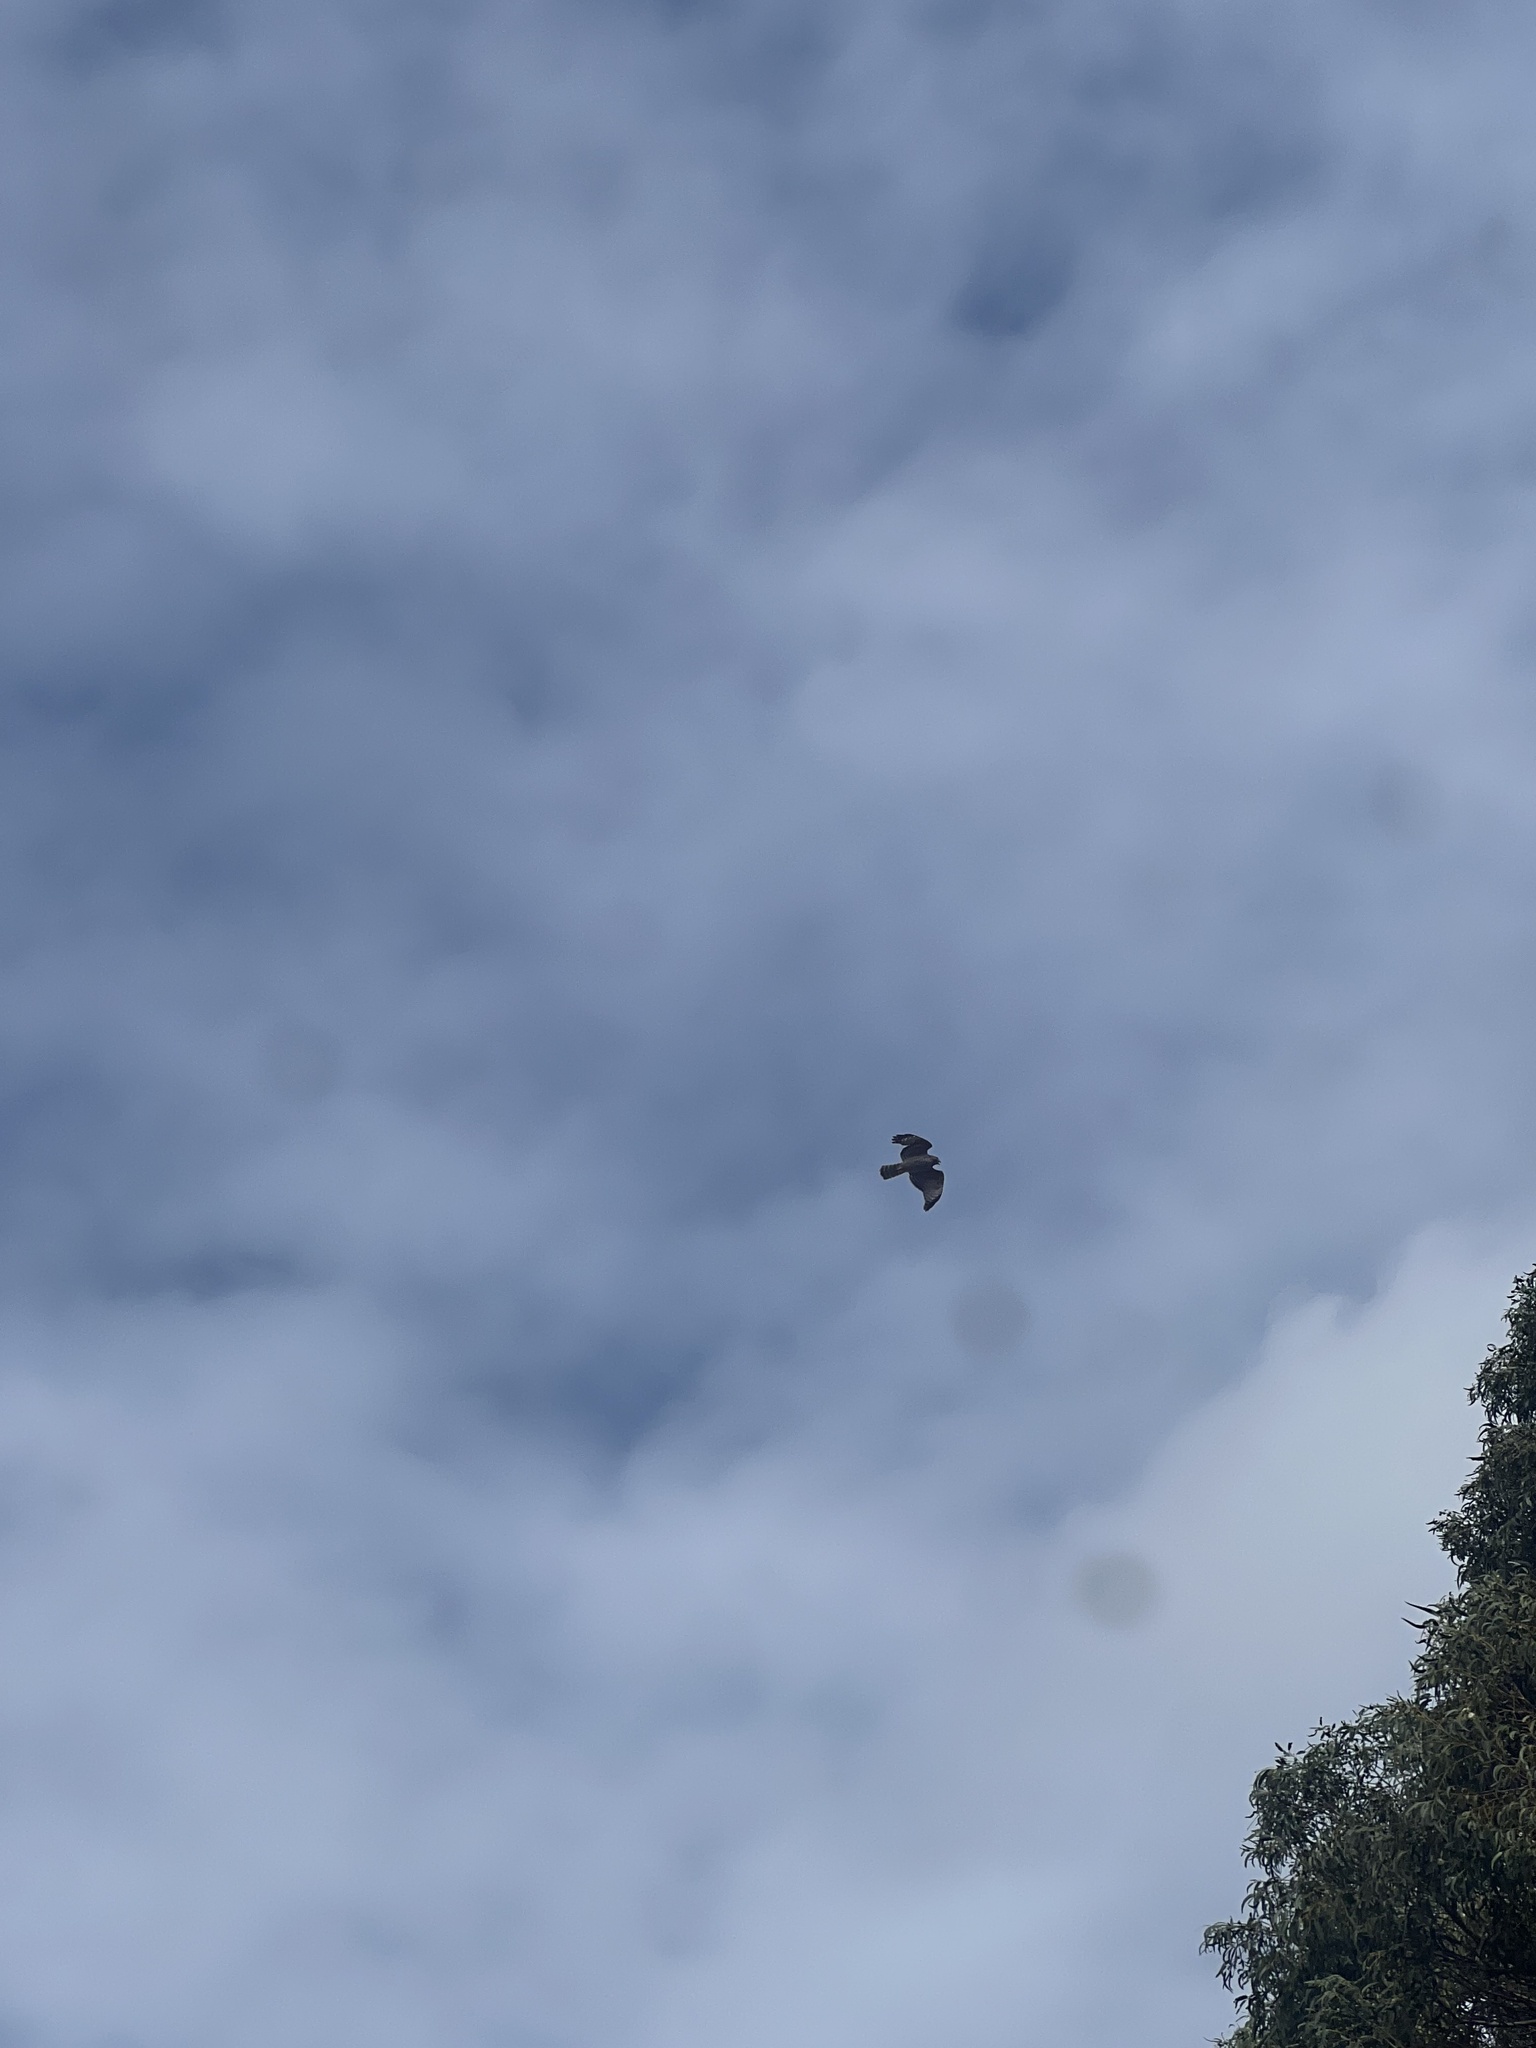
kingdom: Animalia
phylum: Chordata
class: Aves
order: Accipitriformes
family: Accipitridae
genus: Accipiter
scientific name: Accipiter cooperii
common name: Cooper's hawk
